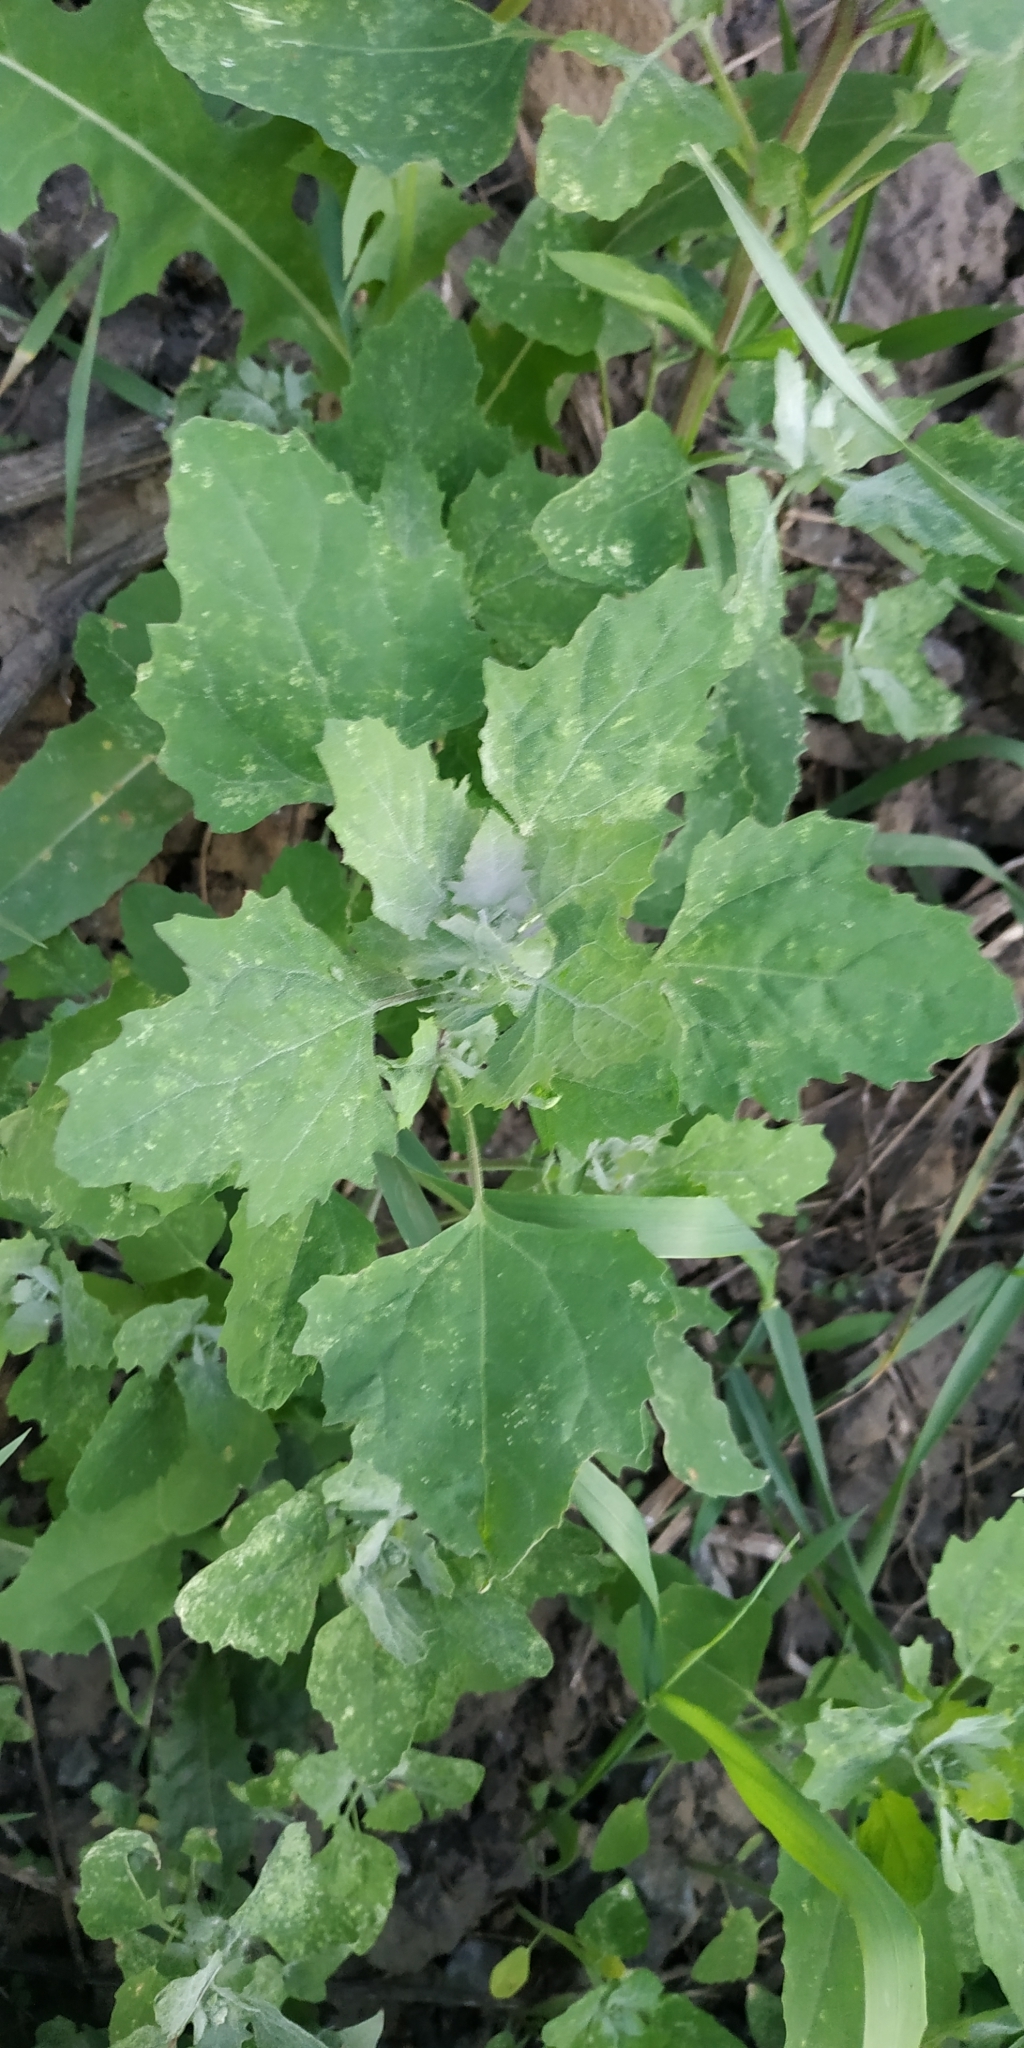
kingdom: Plantae
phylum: Tracheophyta
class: Magnoliopsida
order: Caryophyllales
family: Amaranthaceae
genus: Chenopodium
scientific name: Chenopodium album
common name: Fat-hen
